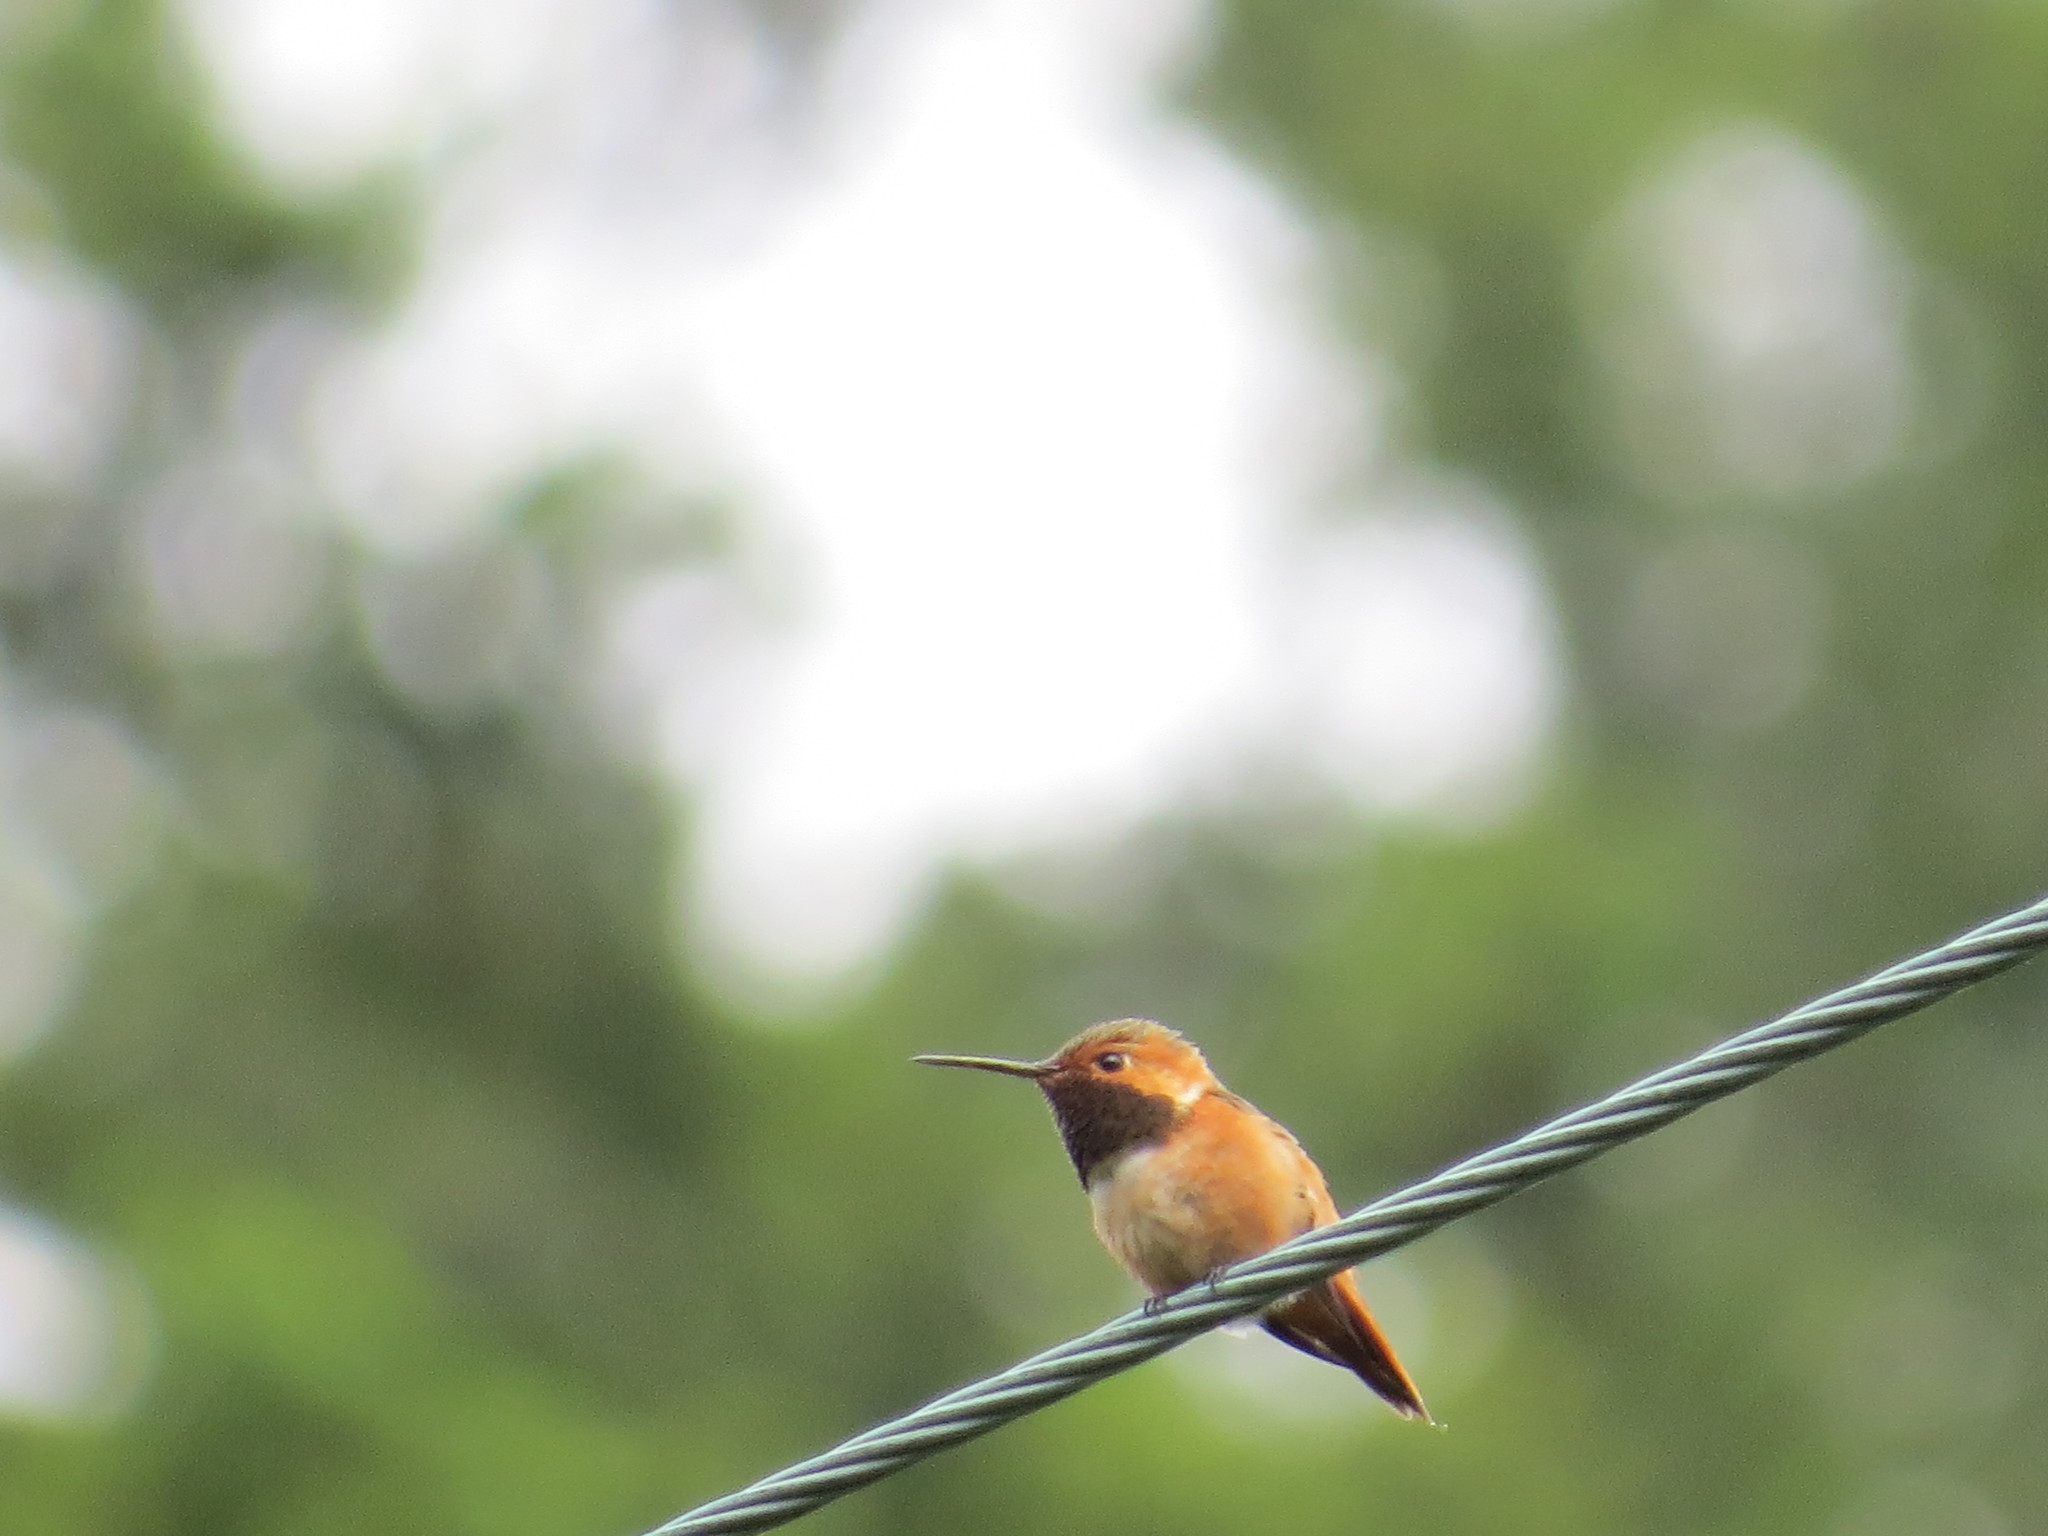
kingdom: Animalia
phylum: Chordata
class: Aves
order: Apodiformes
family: Trochilidae
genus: Selasphorus
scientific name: Selasphorus sasin
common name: Allen's hummingbird
